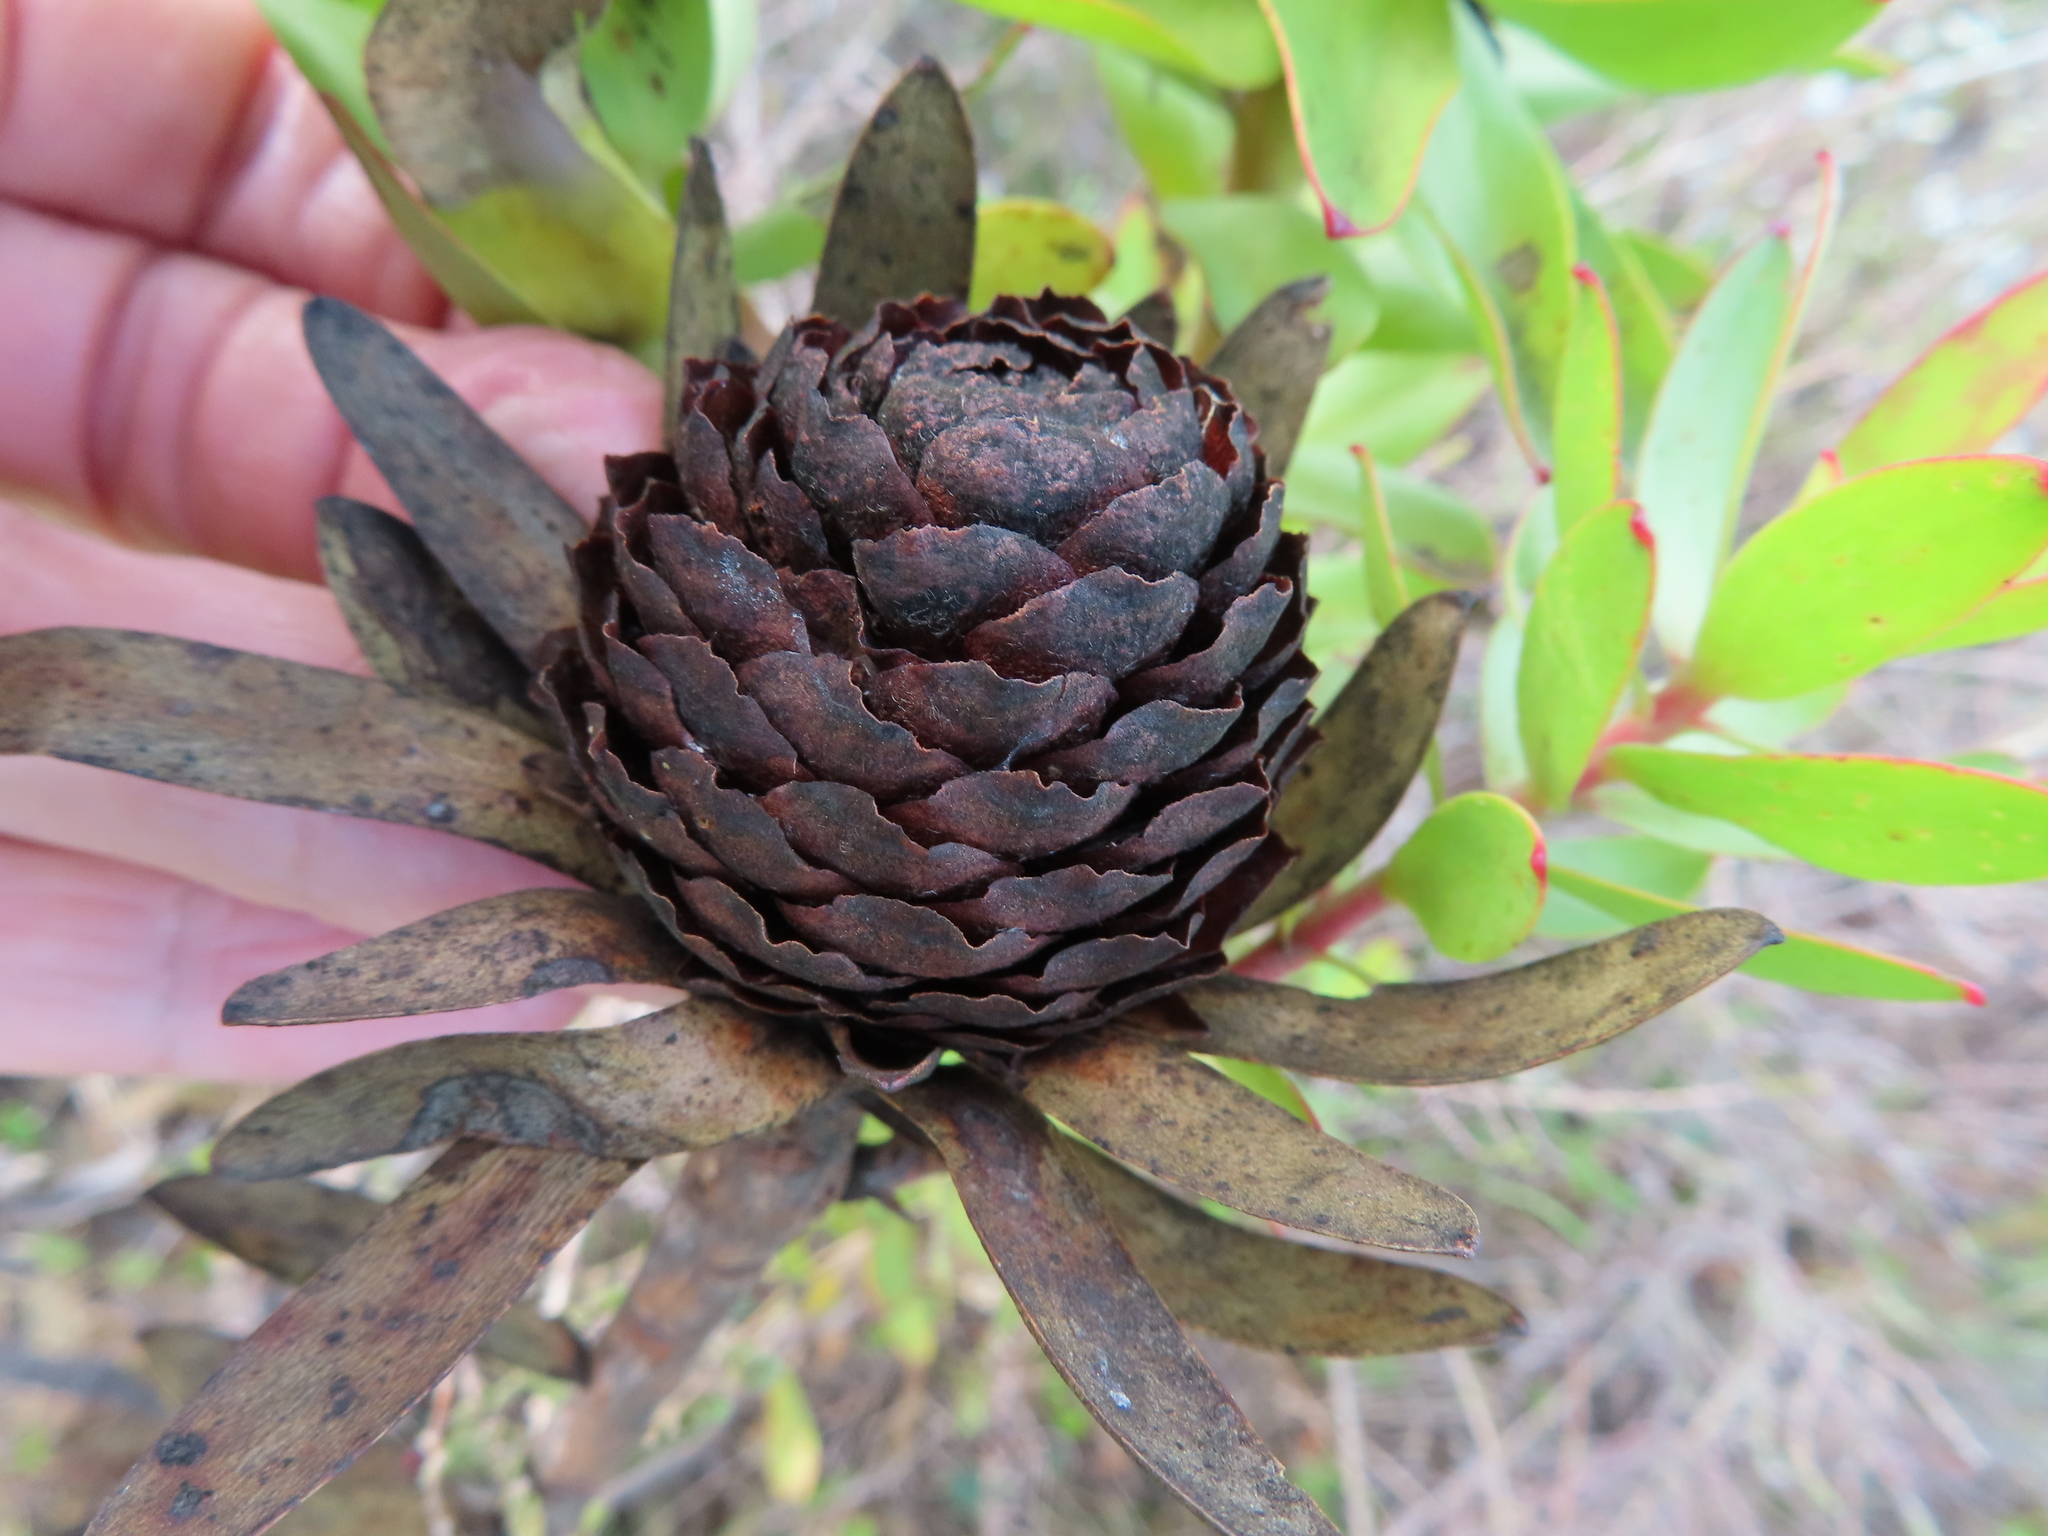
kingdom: Plantae
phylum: Tracheophyta
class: Magnoliopsida
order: Proteales
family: Proteaceae
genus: Leucadendron
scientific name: Leucadendron elimense
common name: Elim conebush
